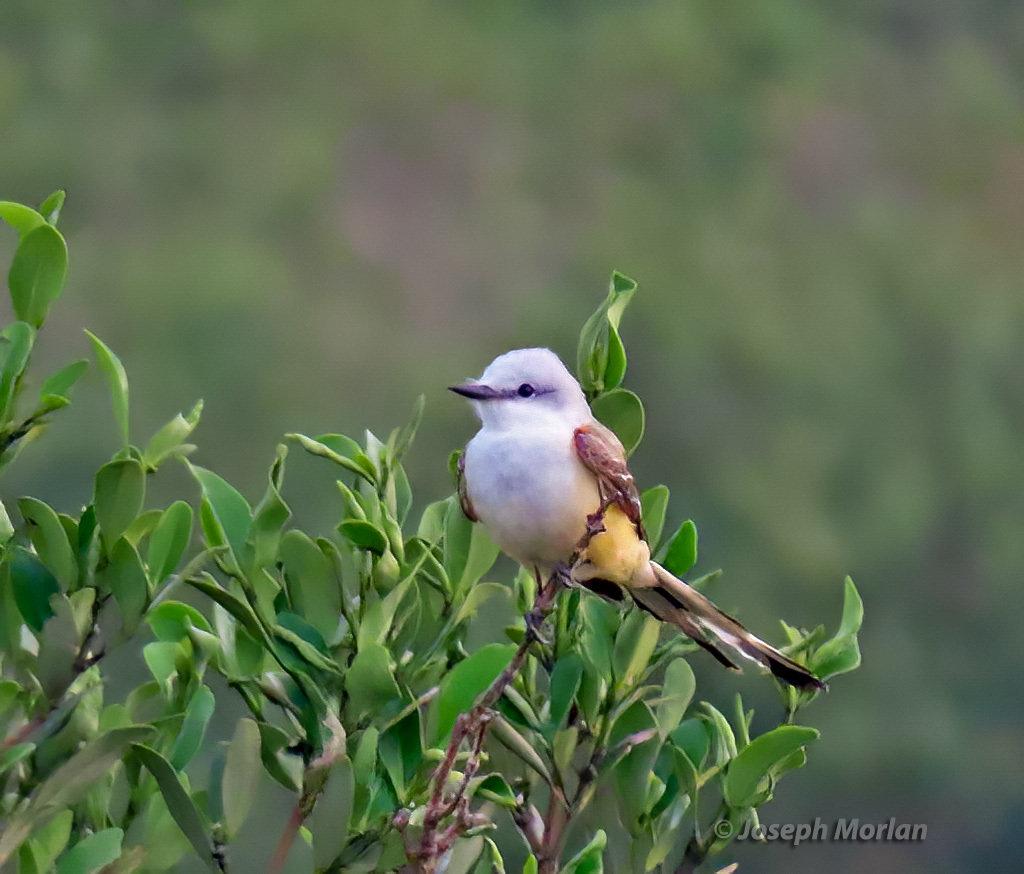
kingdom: Animalia
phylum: Chordata
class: Aves
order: Passeriformes
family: Tyrannidae
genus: Tyrannus
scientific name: Tyrannus forficatus
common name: Scissor-tailed flycatcher
